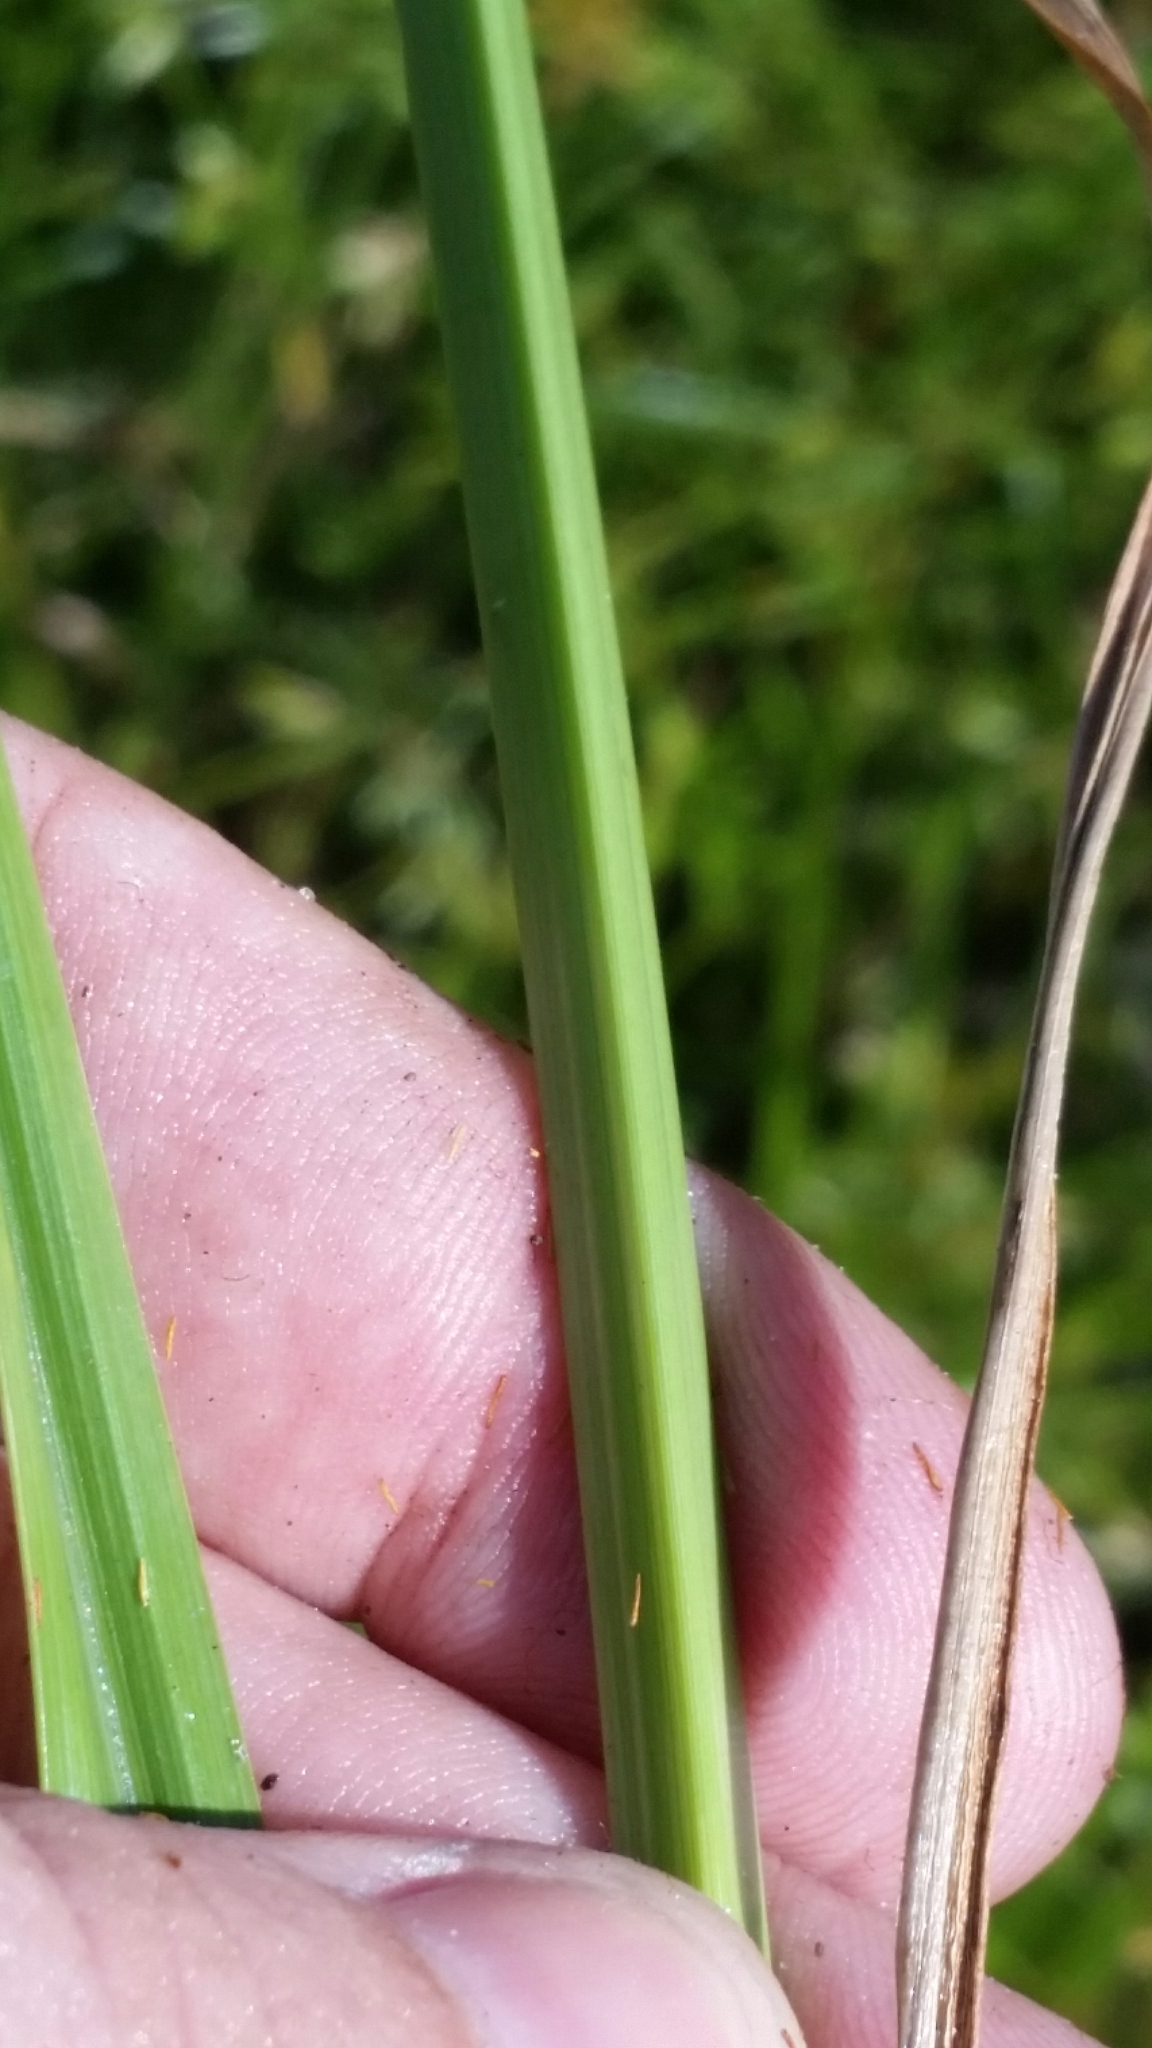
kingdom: Plantae
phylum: Tracheophyta
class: Liliopsida
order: Poales
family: Cyperaceae
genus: Cyperus
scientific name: Cyperus esculentus
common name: Yellow nutsedge
